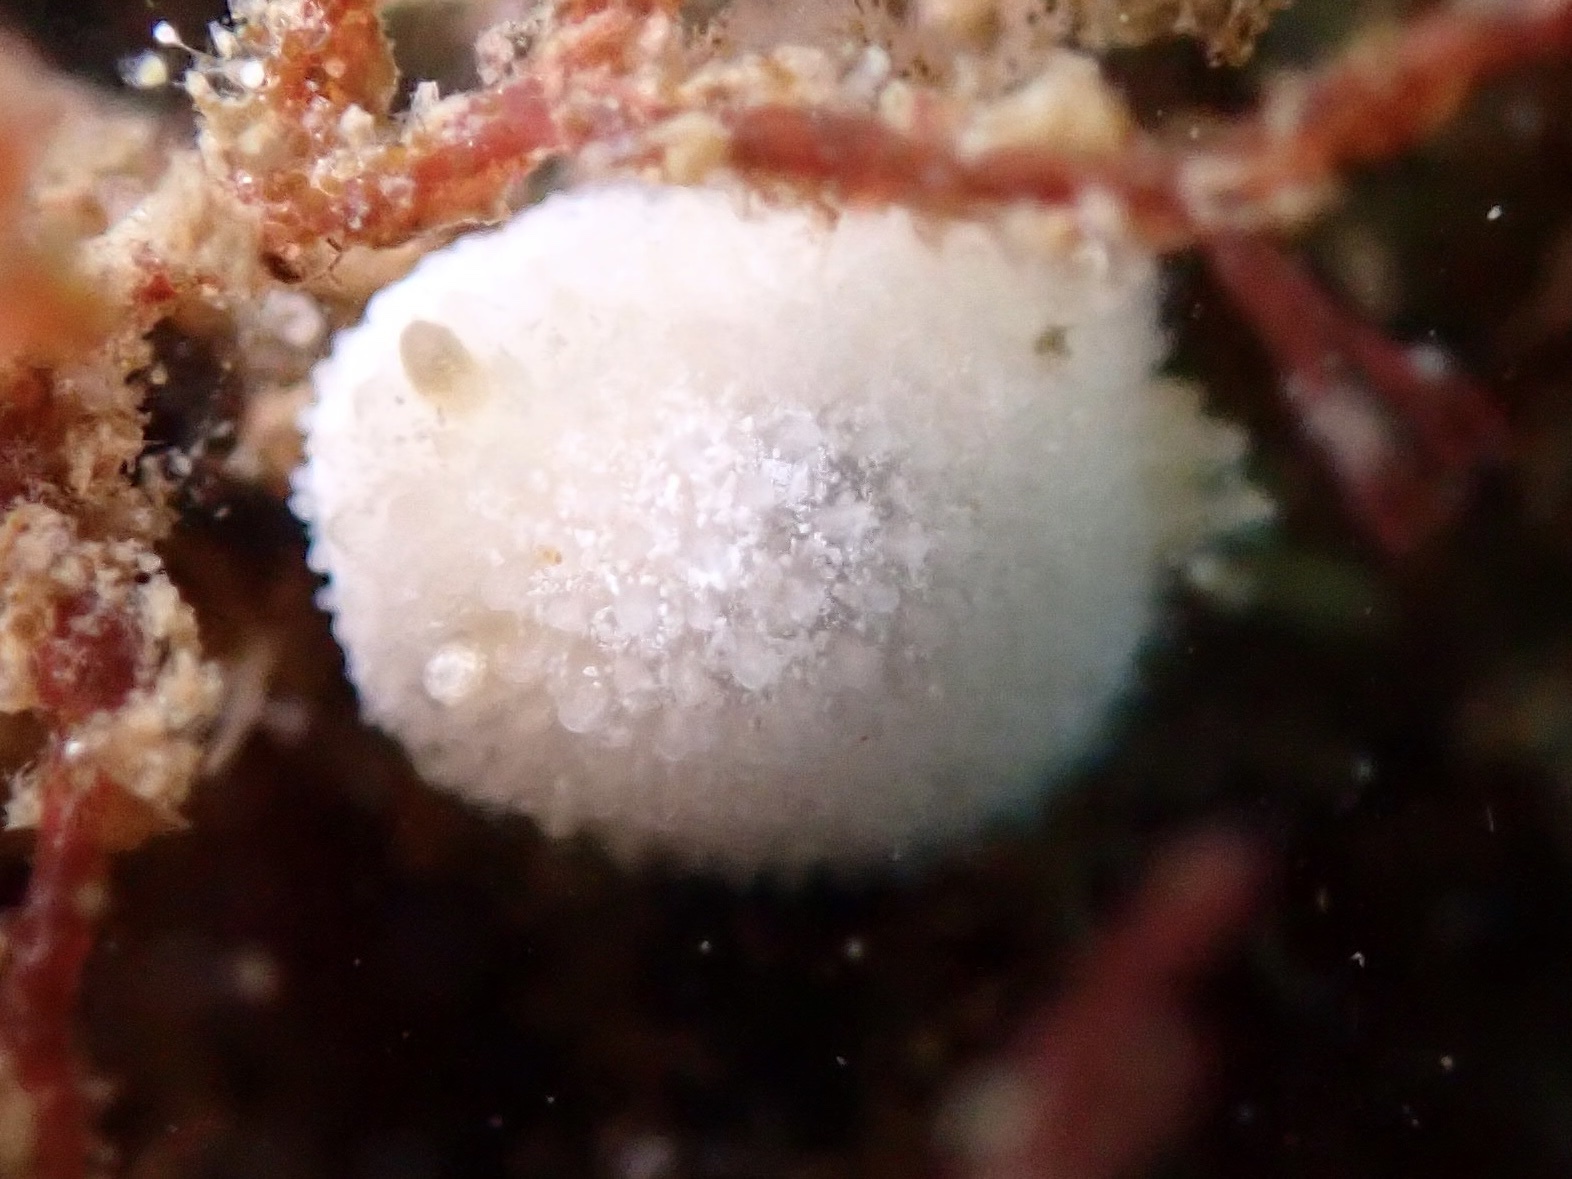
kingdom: Animalia
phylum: Mollusca
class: Gastropoda
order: Nudibranchia
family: Calycidorididae
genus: Diaphorodoris
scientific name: Diaphorodoris lirulatocauda
